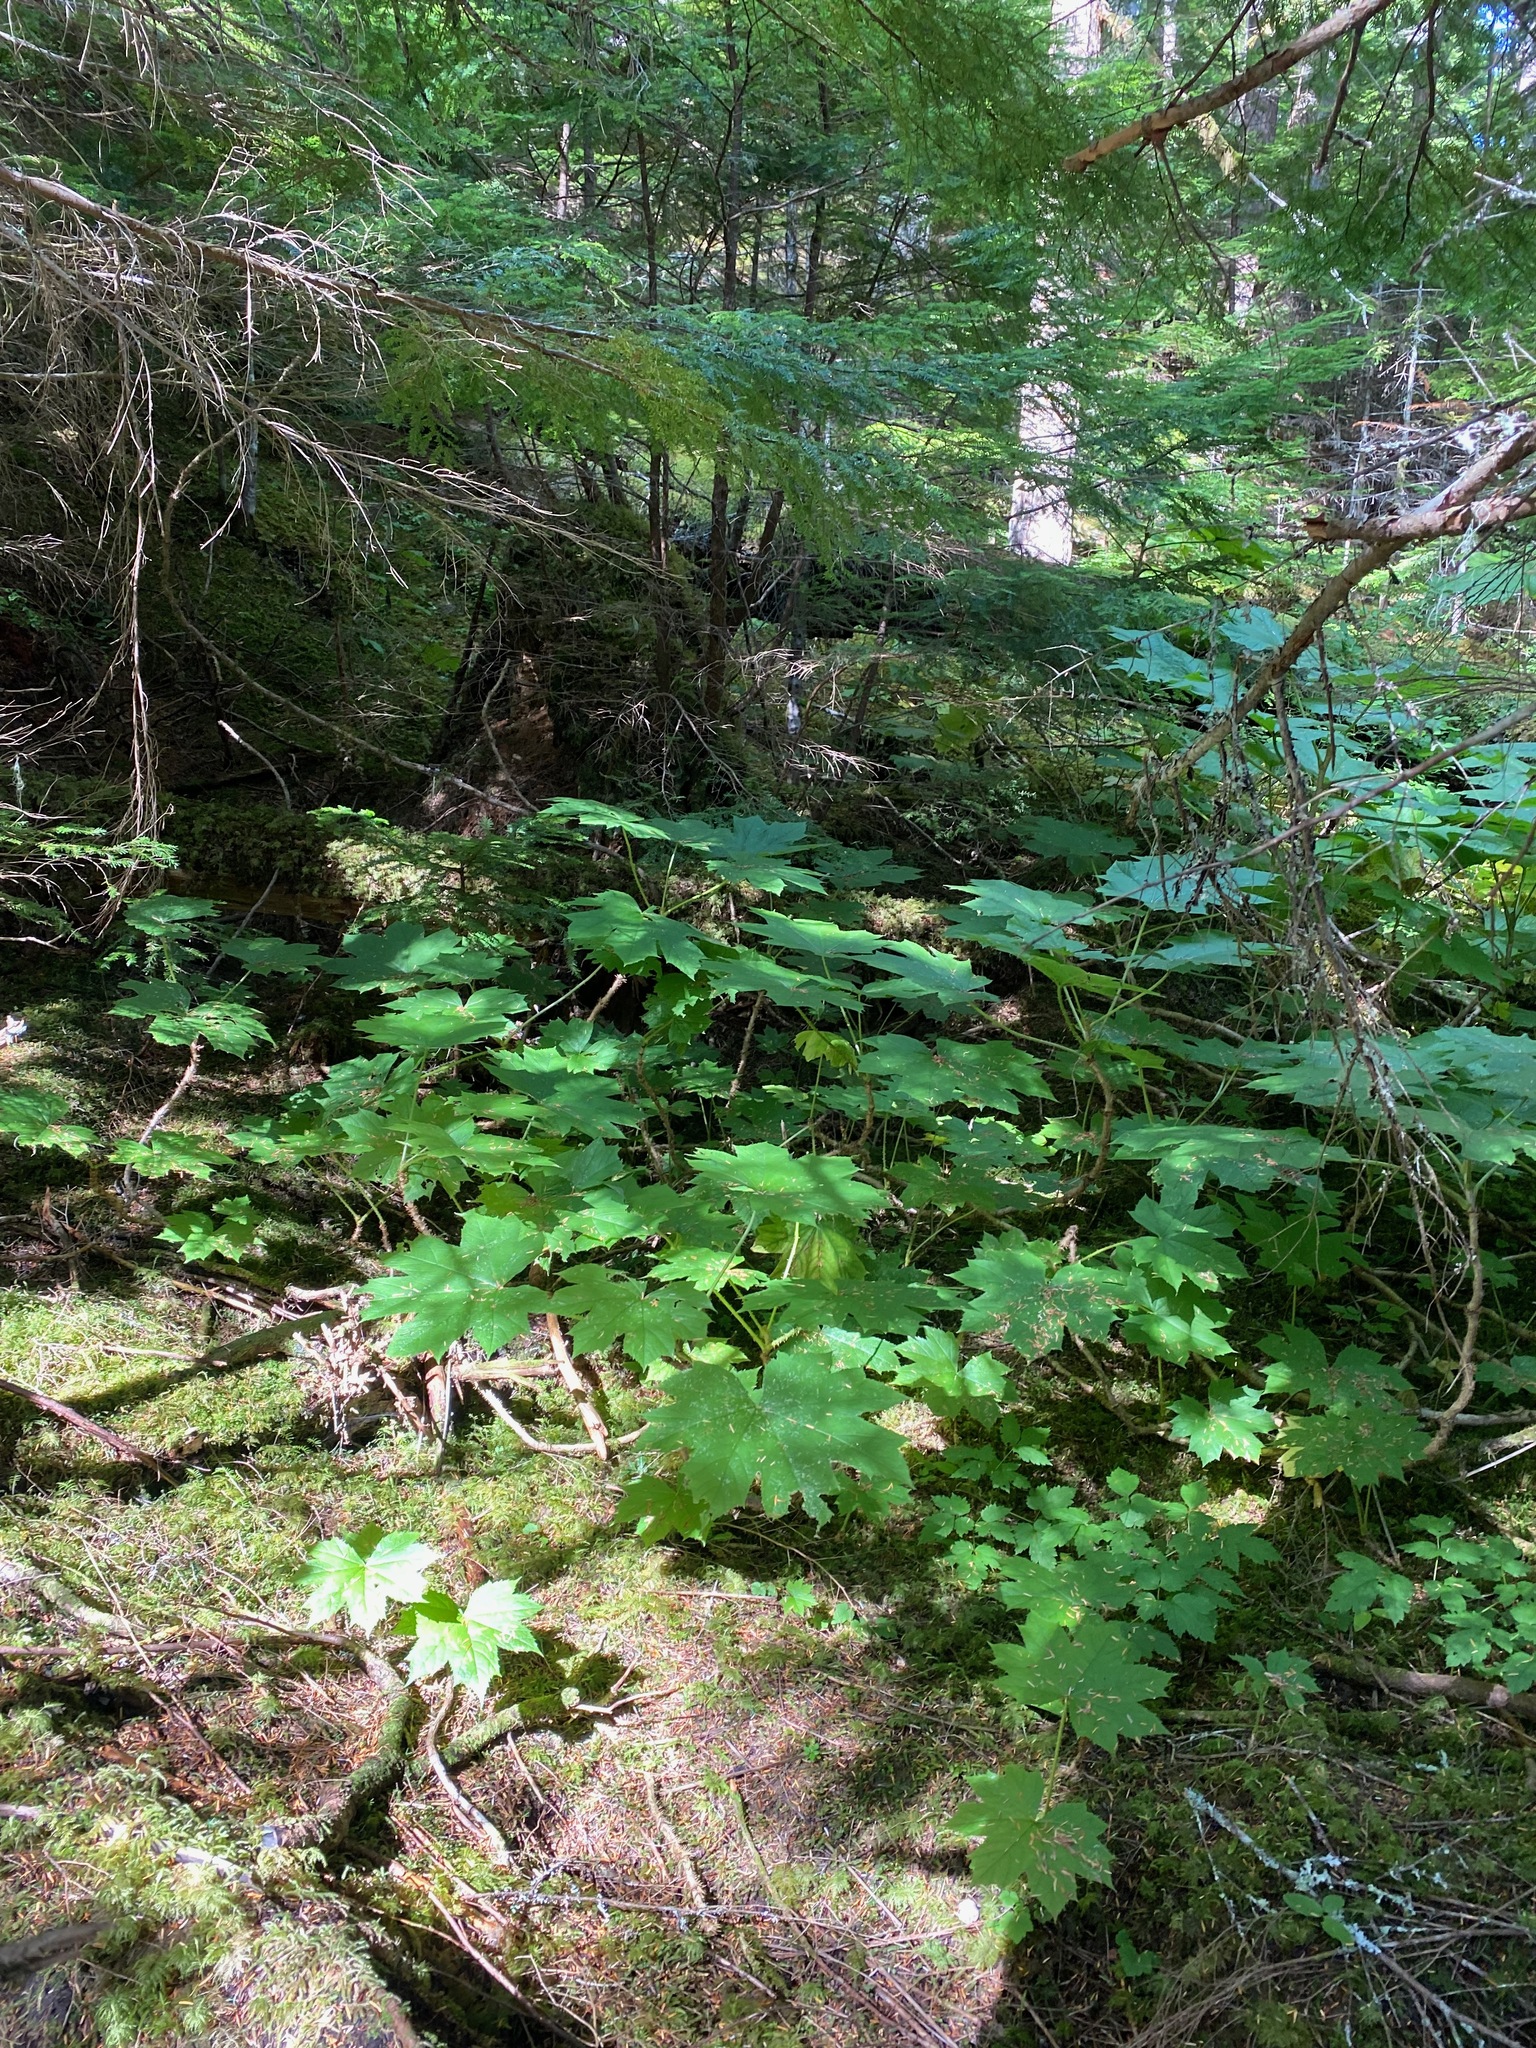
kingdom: Plantae
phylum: Tracheophyta
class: Magnoliopsida
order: Apiales
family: Araliaceae
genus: Oplopanax
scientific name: Oplopanax horridus
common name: Devil's walking-stick
